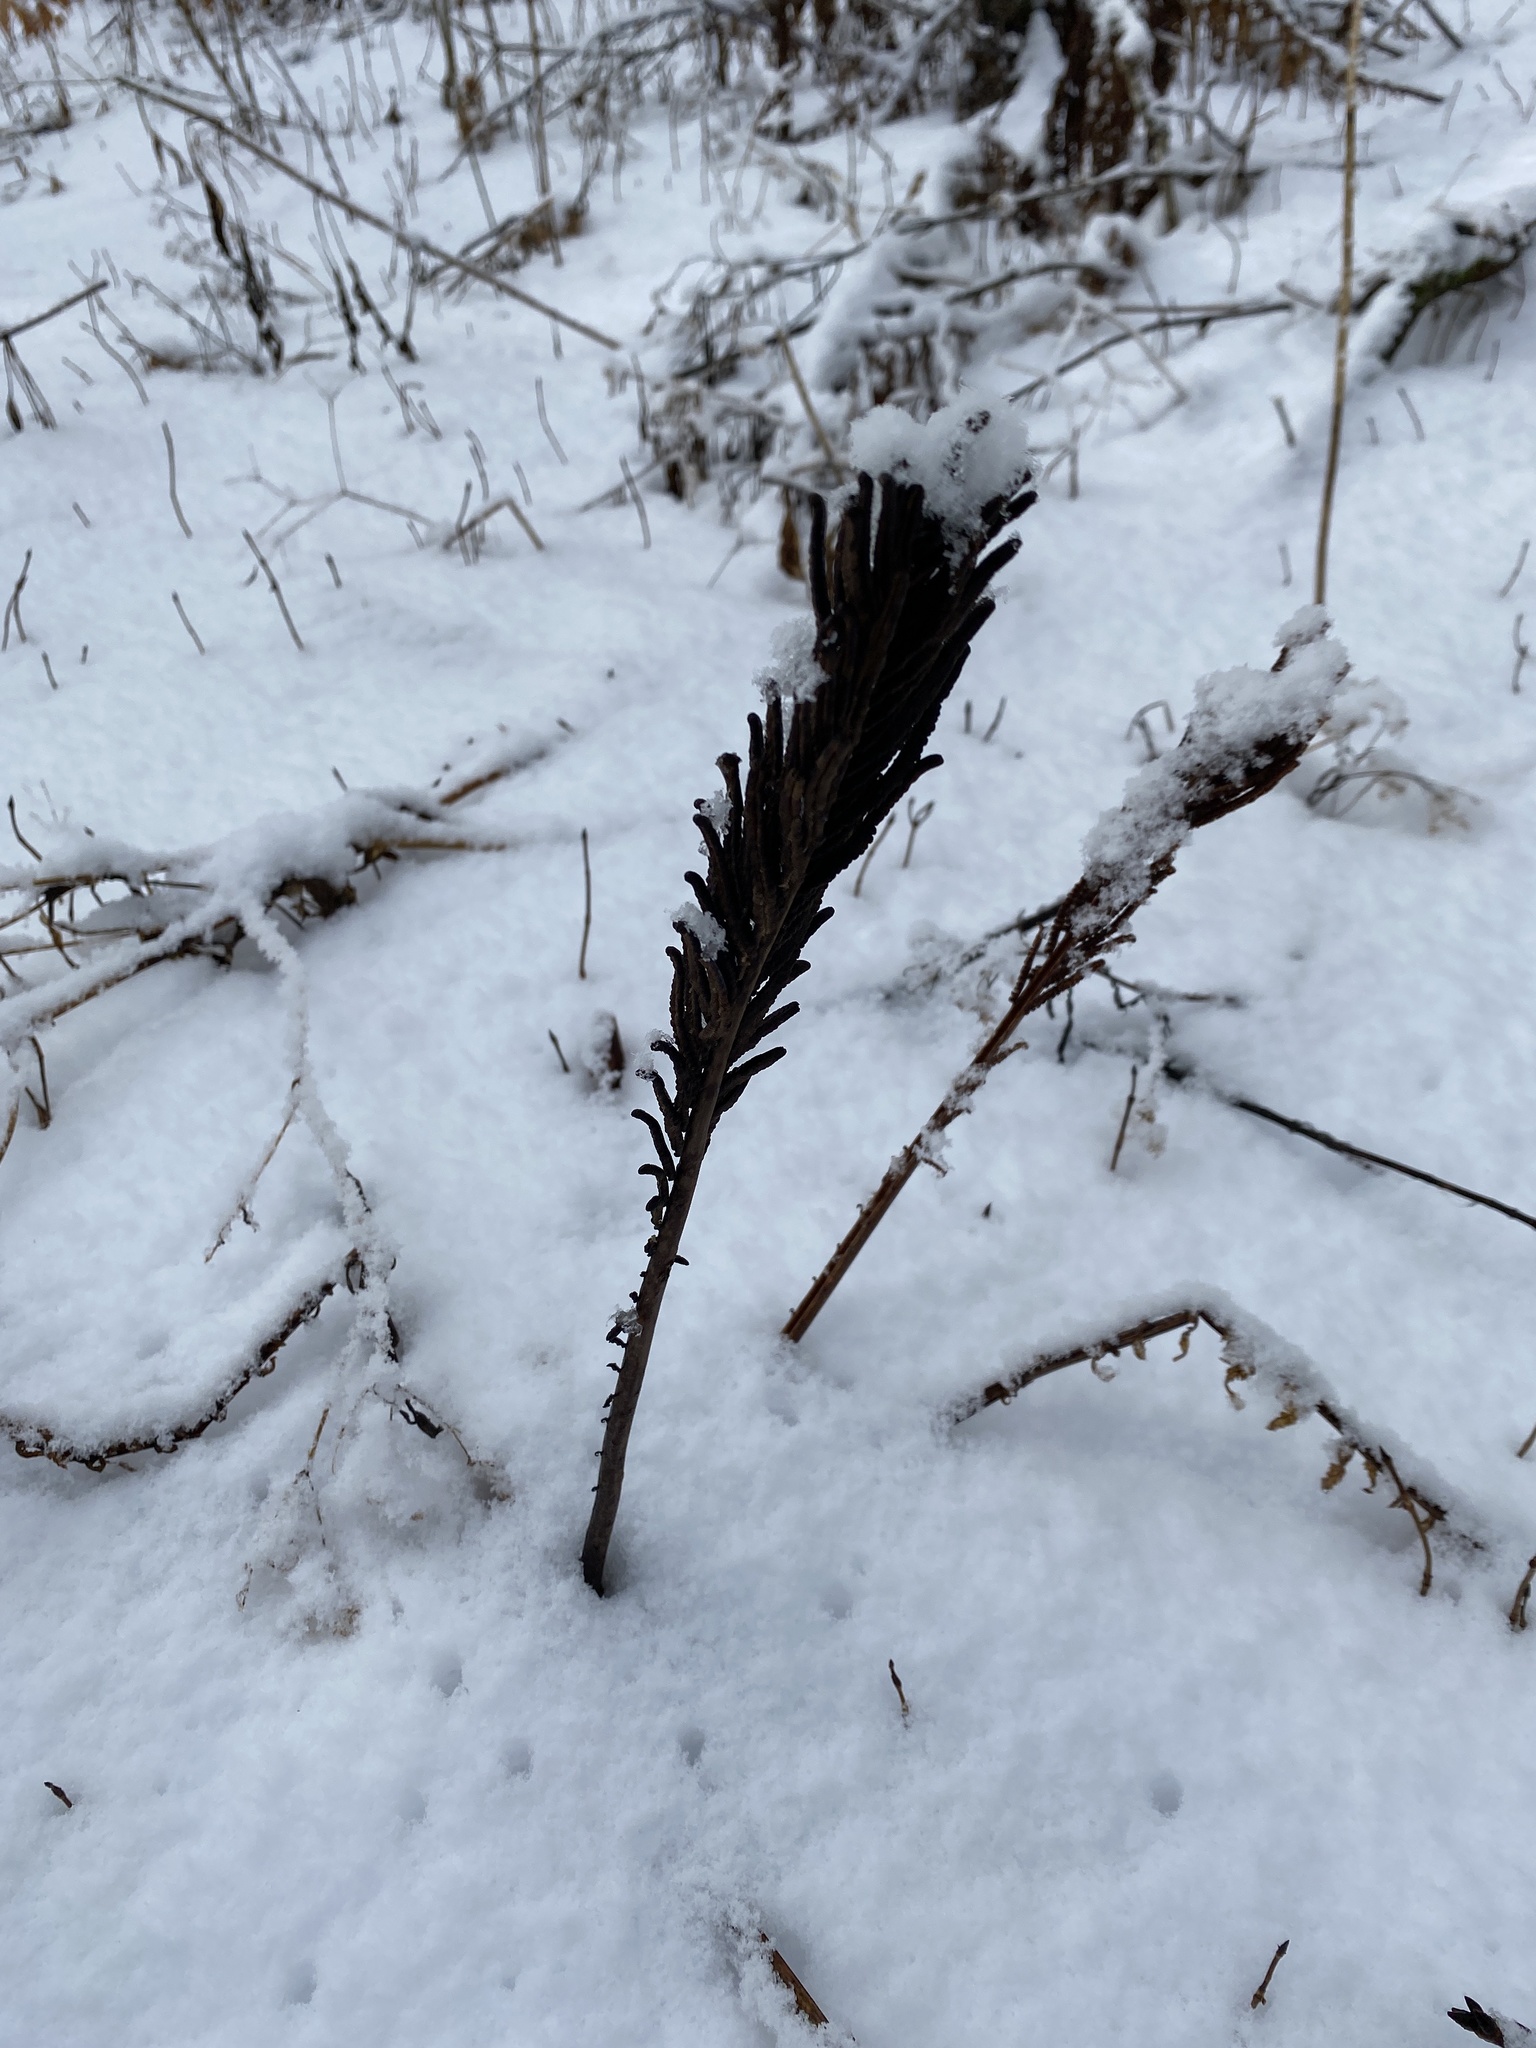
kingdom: Plantae
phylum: Tracheophyta
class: Polypodiopsida
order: Polypodiales
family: Onocleaceae
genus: Matteuccia
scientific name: Matteuccia struthiopteris
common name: Ostrich fern
